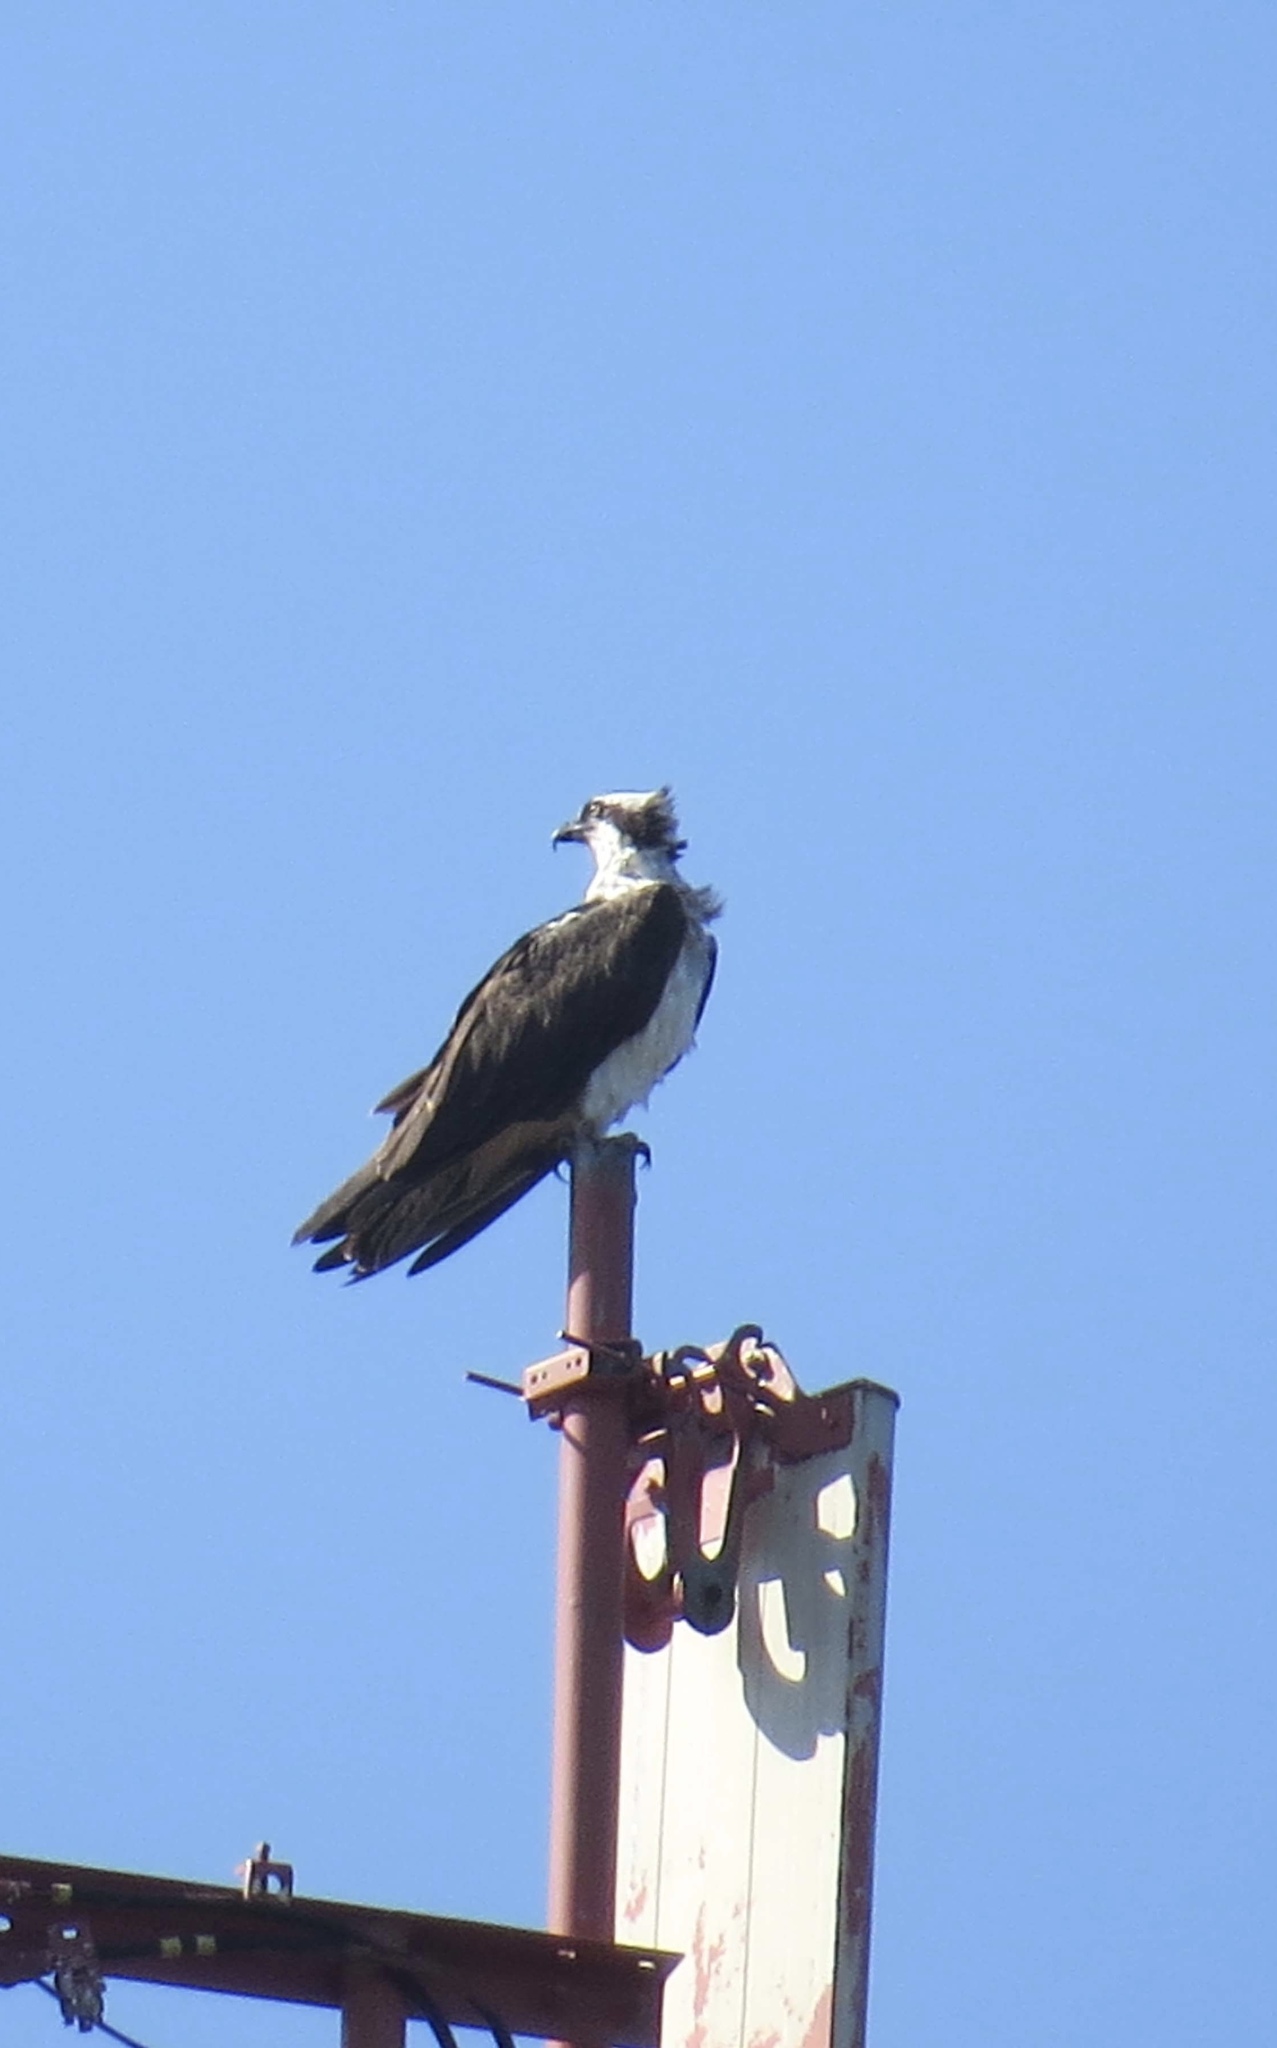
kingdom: Animalia
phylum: Chordata
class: Aves
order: Accipitriformes
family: Pandionidae
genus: Pandion
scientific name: Pandion haliaetus
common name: Osprey
